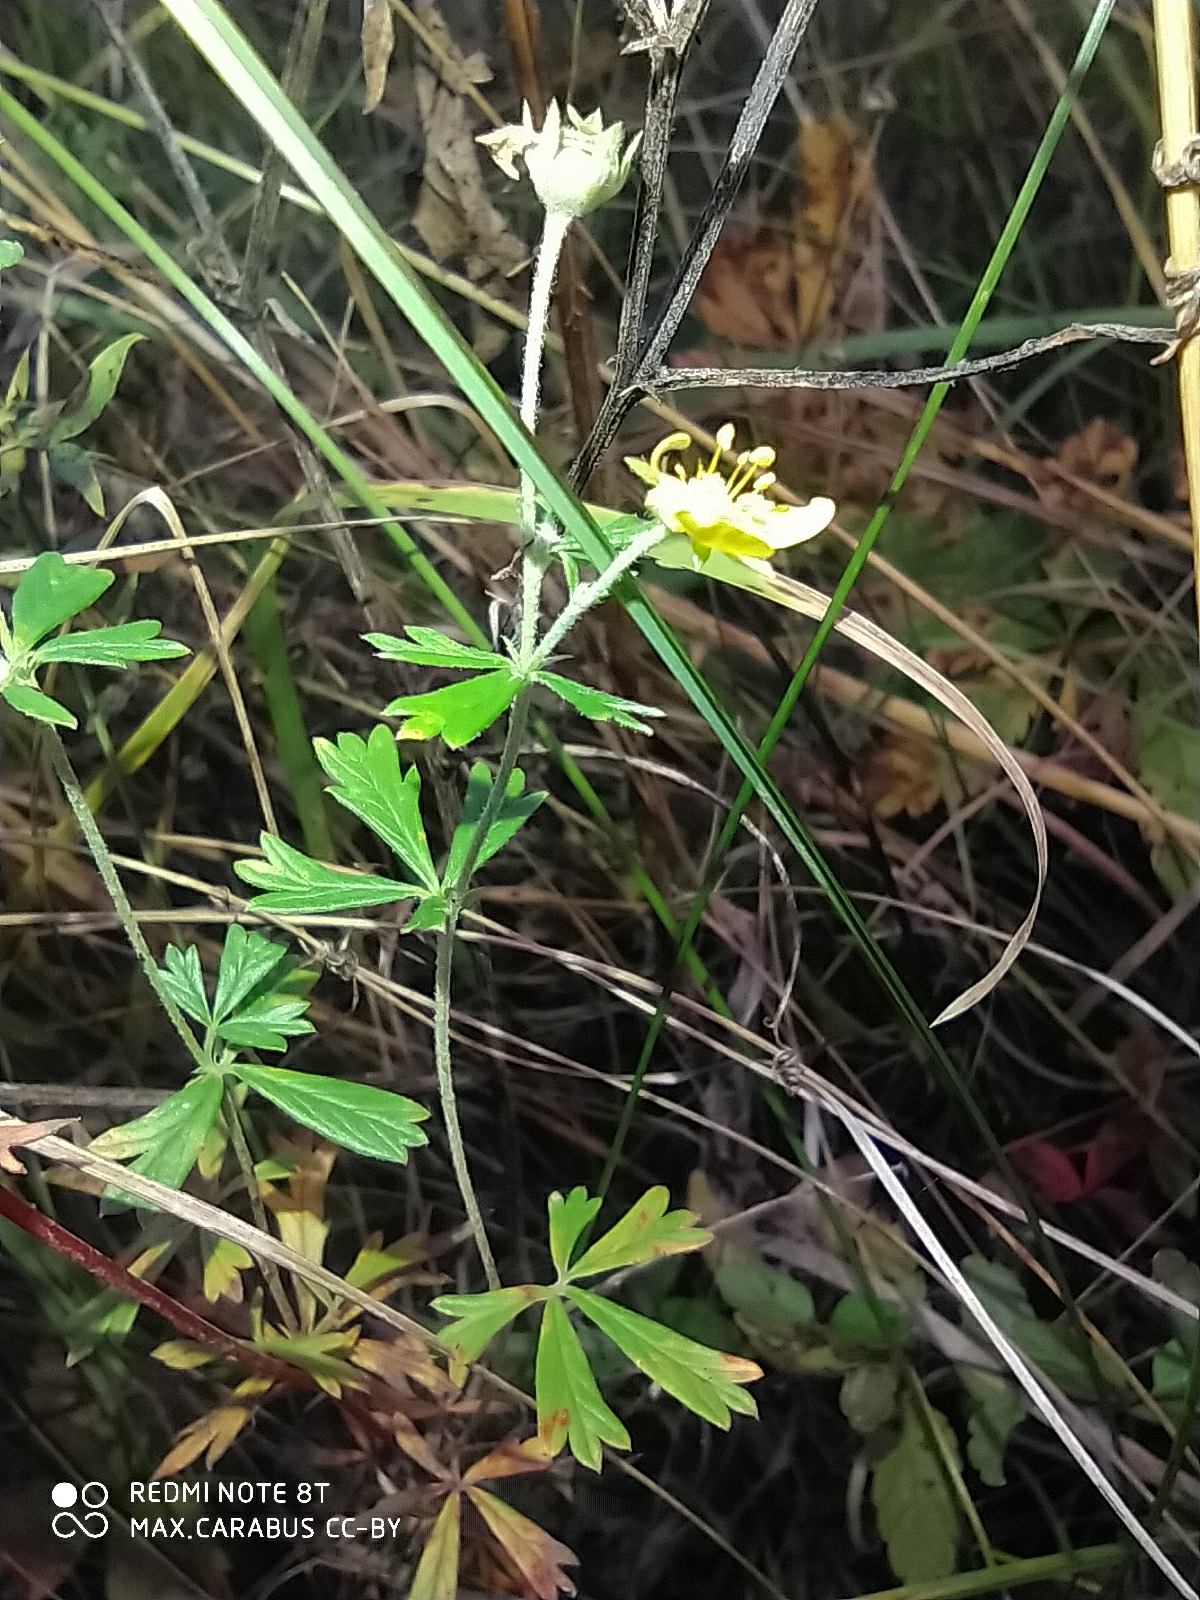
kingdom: Plantae
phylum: Tracheophyta
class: Magnoliopsida
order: Rosales
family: Rosaceae
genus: Potentilla
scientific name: Potentilla erecta
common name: Tormentil
